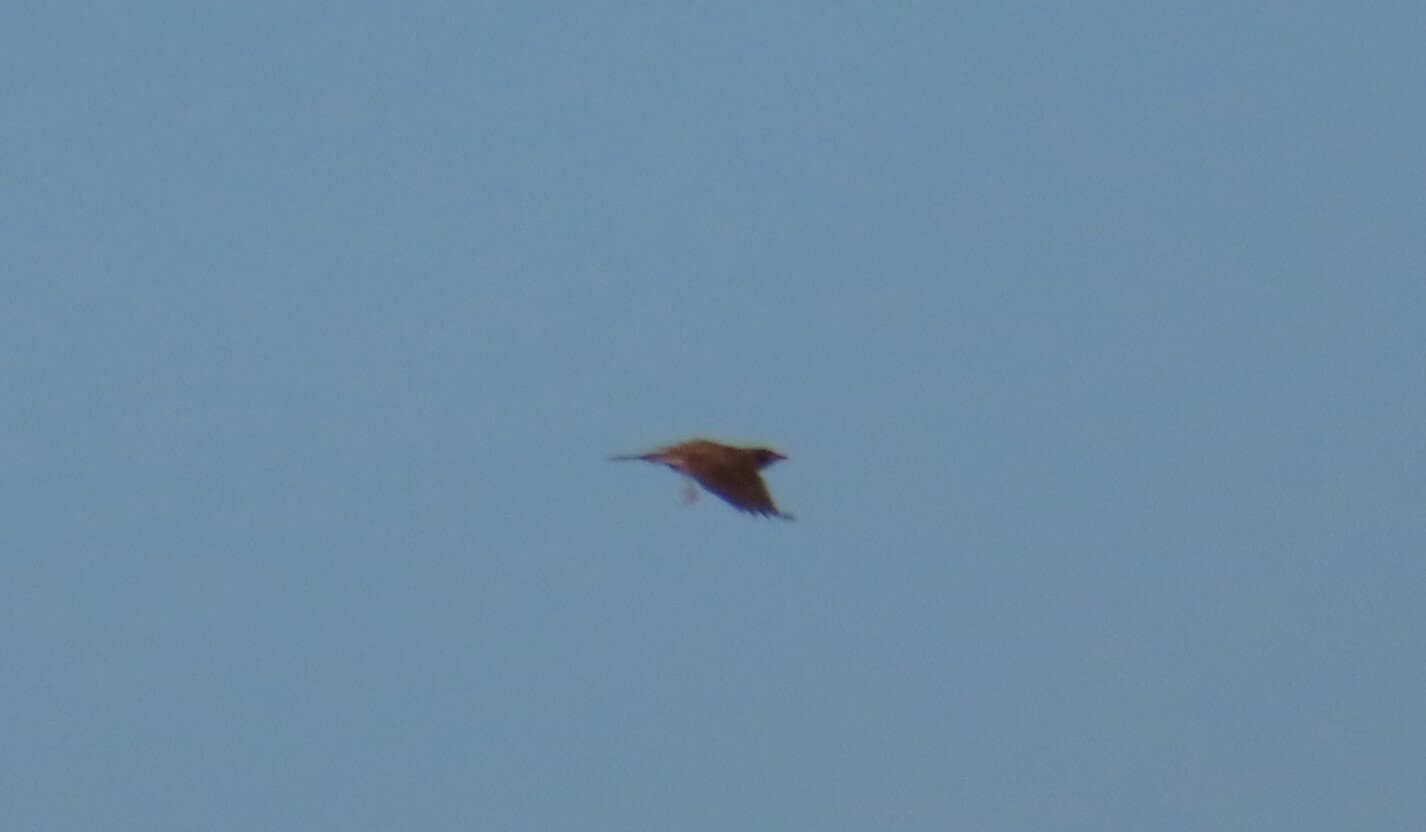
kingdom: Animalia
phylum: Chordata
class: Aves
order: Passeriformes
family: Turdidae
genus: Turdus
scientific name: Turdus migratorius
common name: American robin
